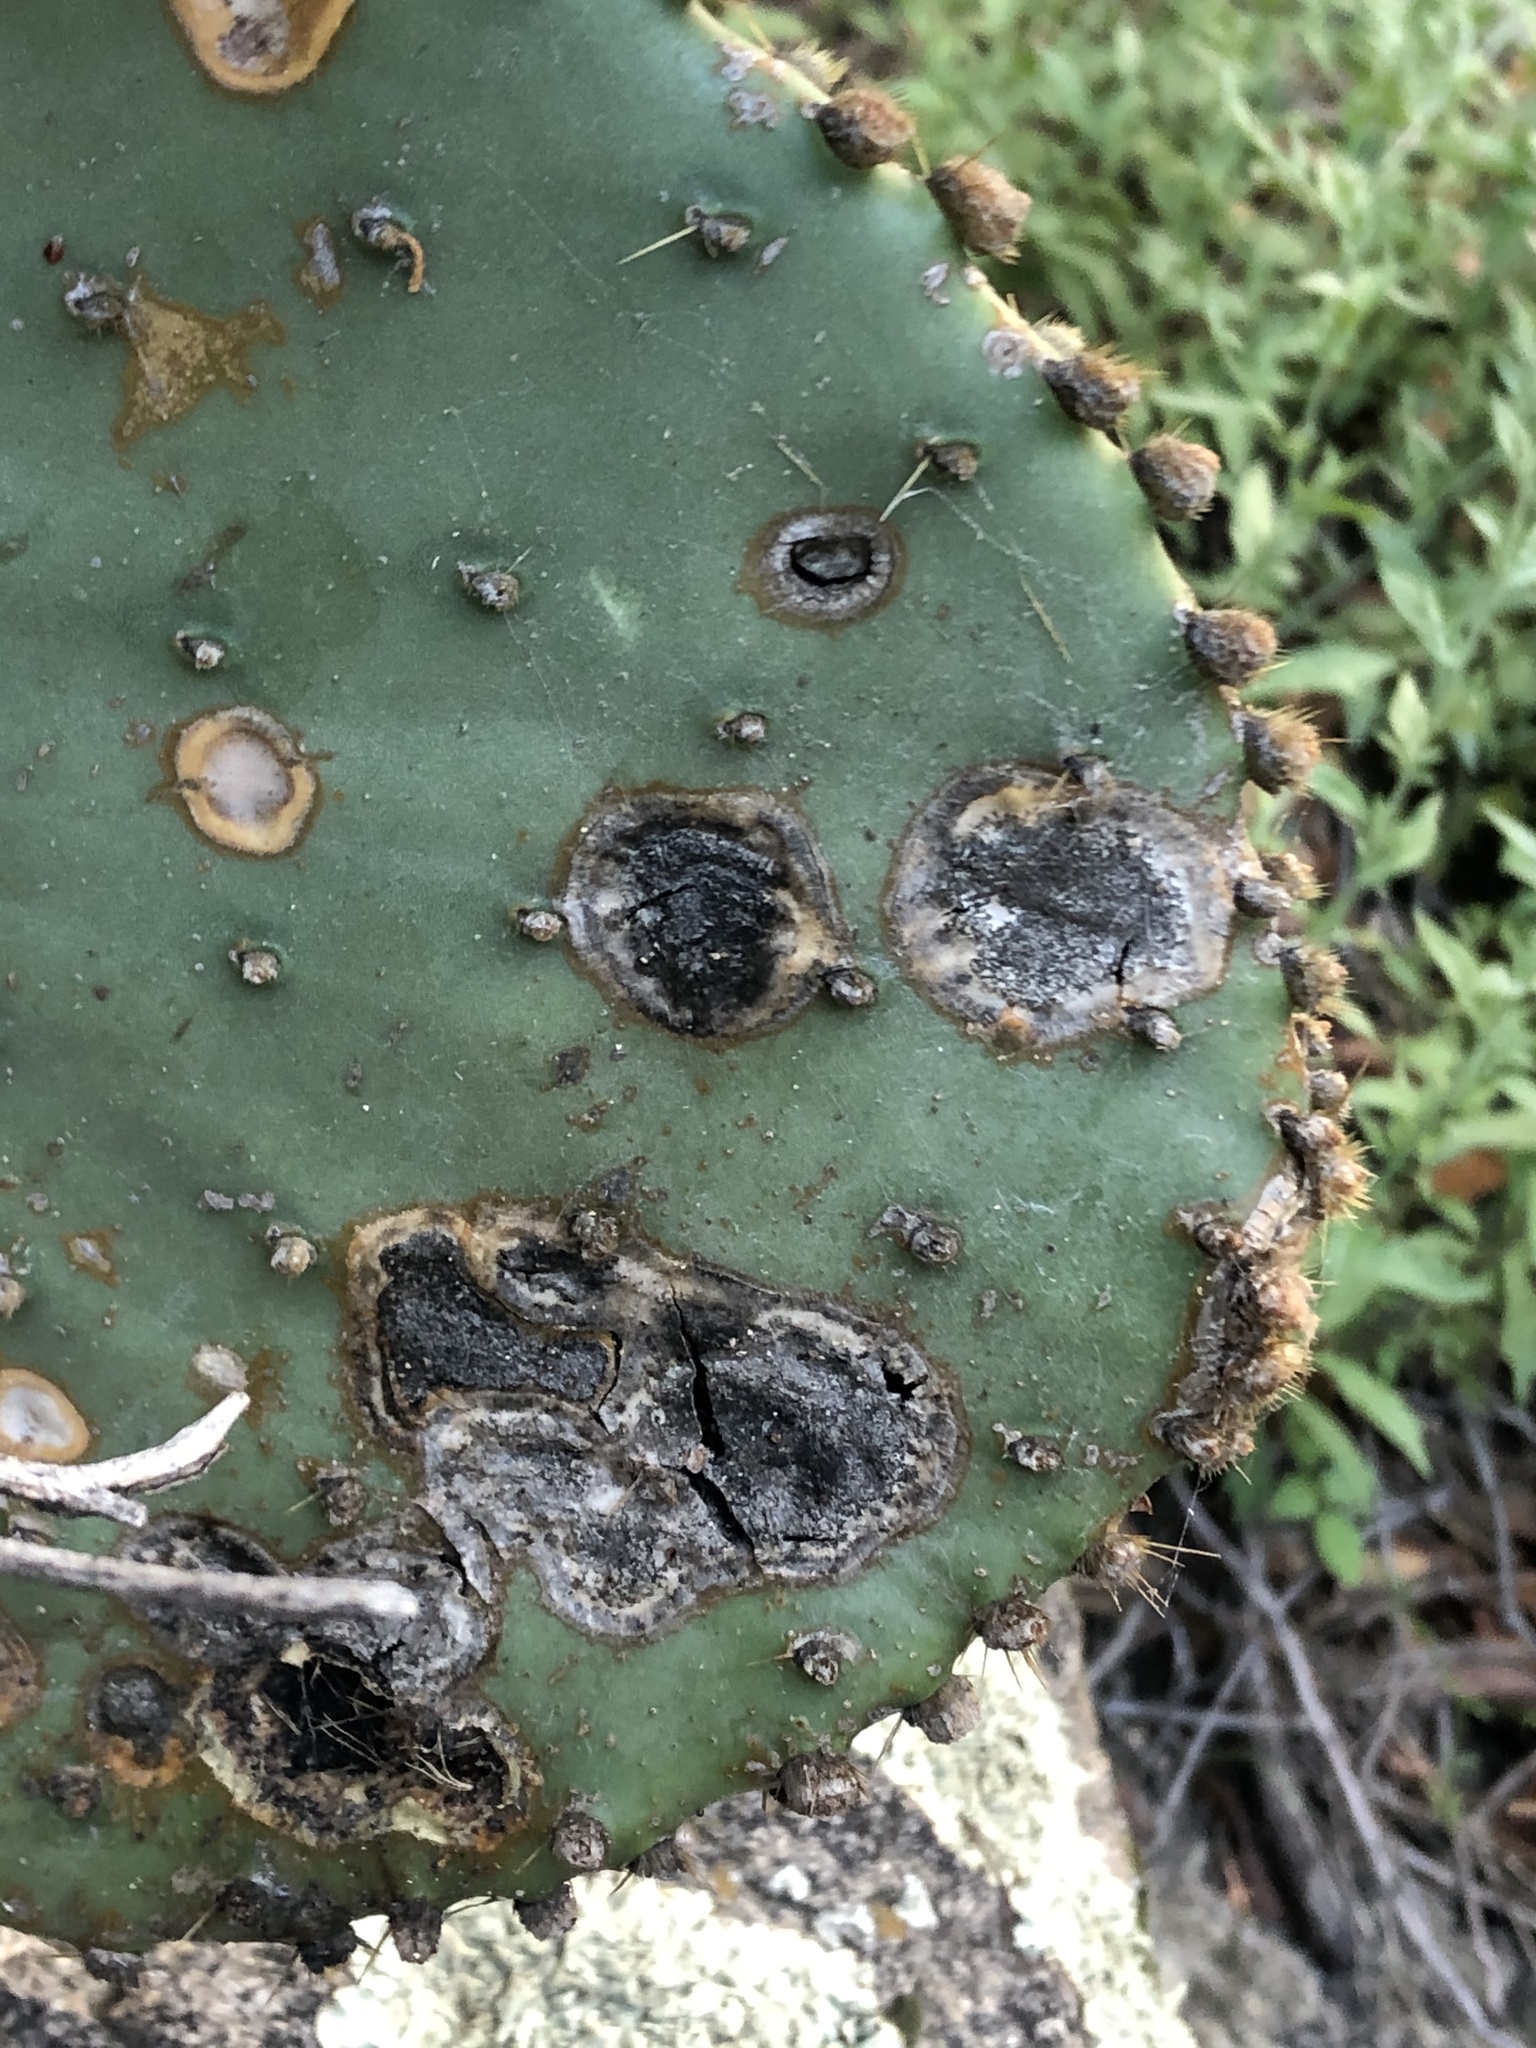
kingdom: Fungi
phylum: Ascomycota
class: Dothideomycetes
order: Botryosphaeriales
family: Phyllostictaceae
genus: Phyllosticta
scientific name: Phyllosticta concava
